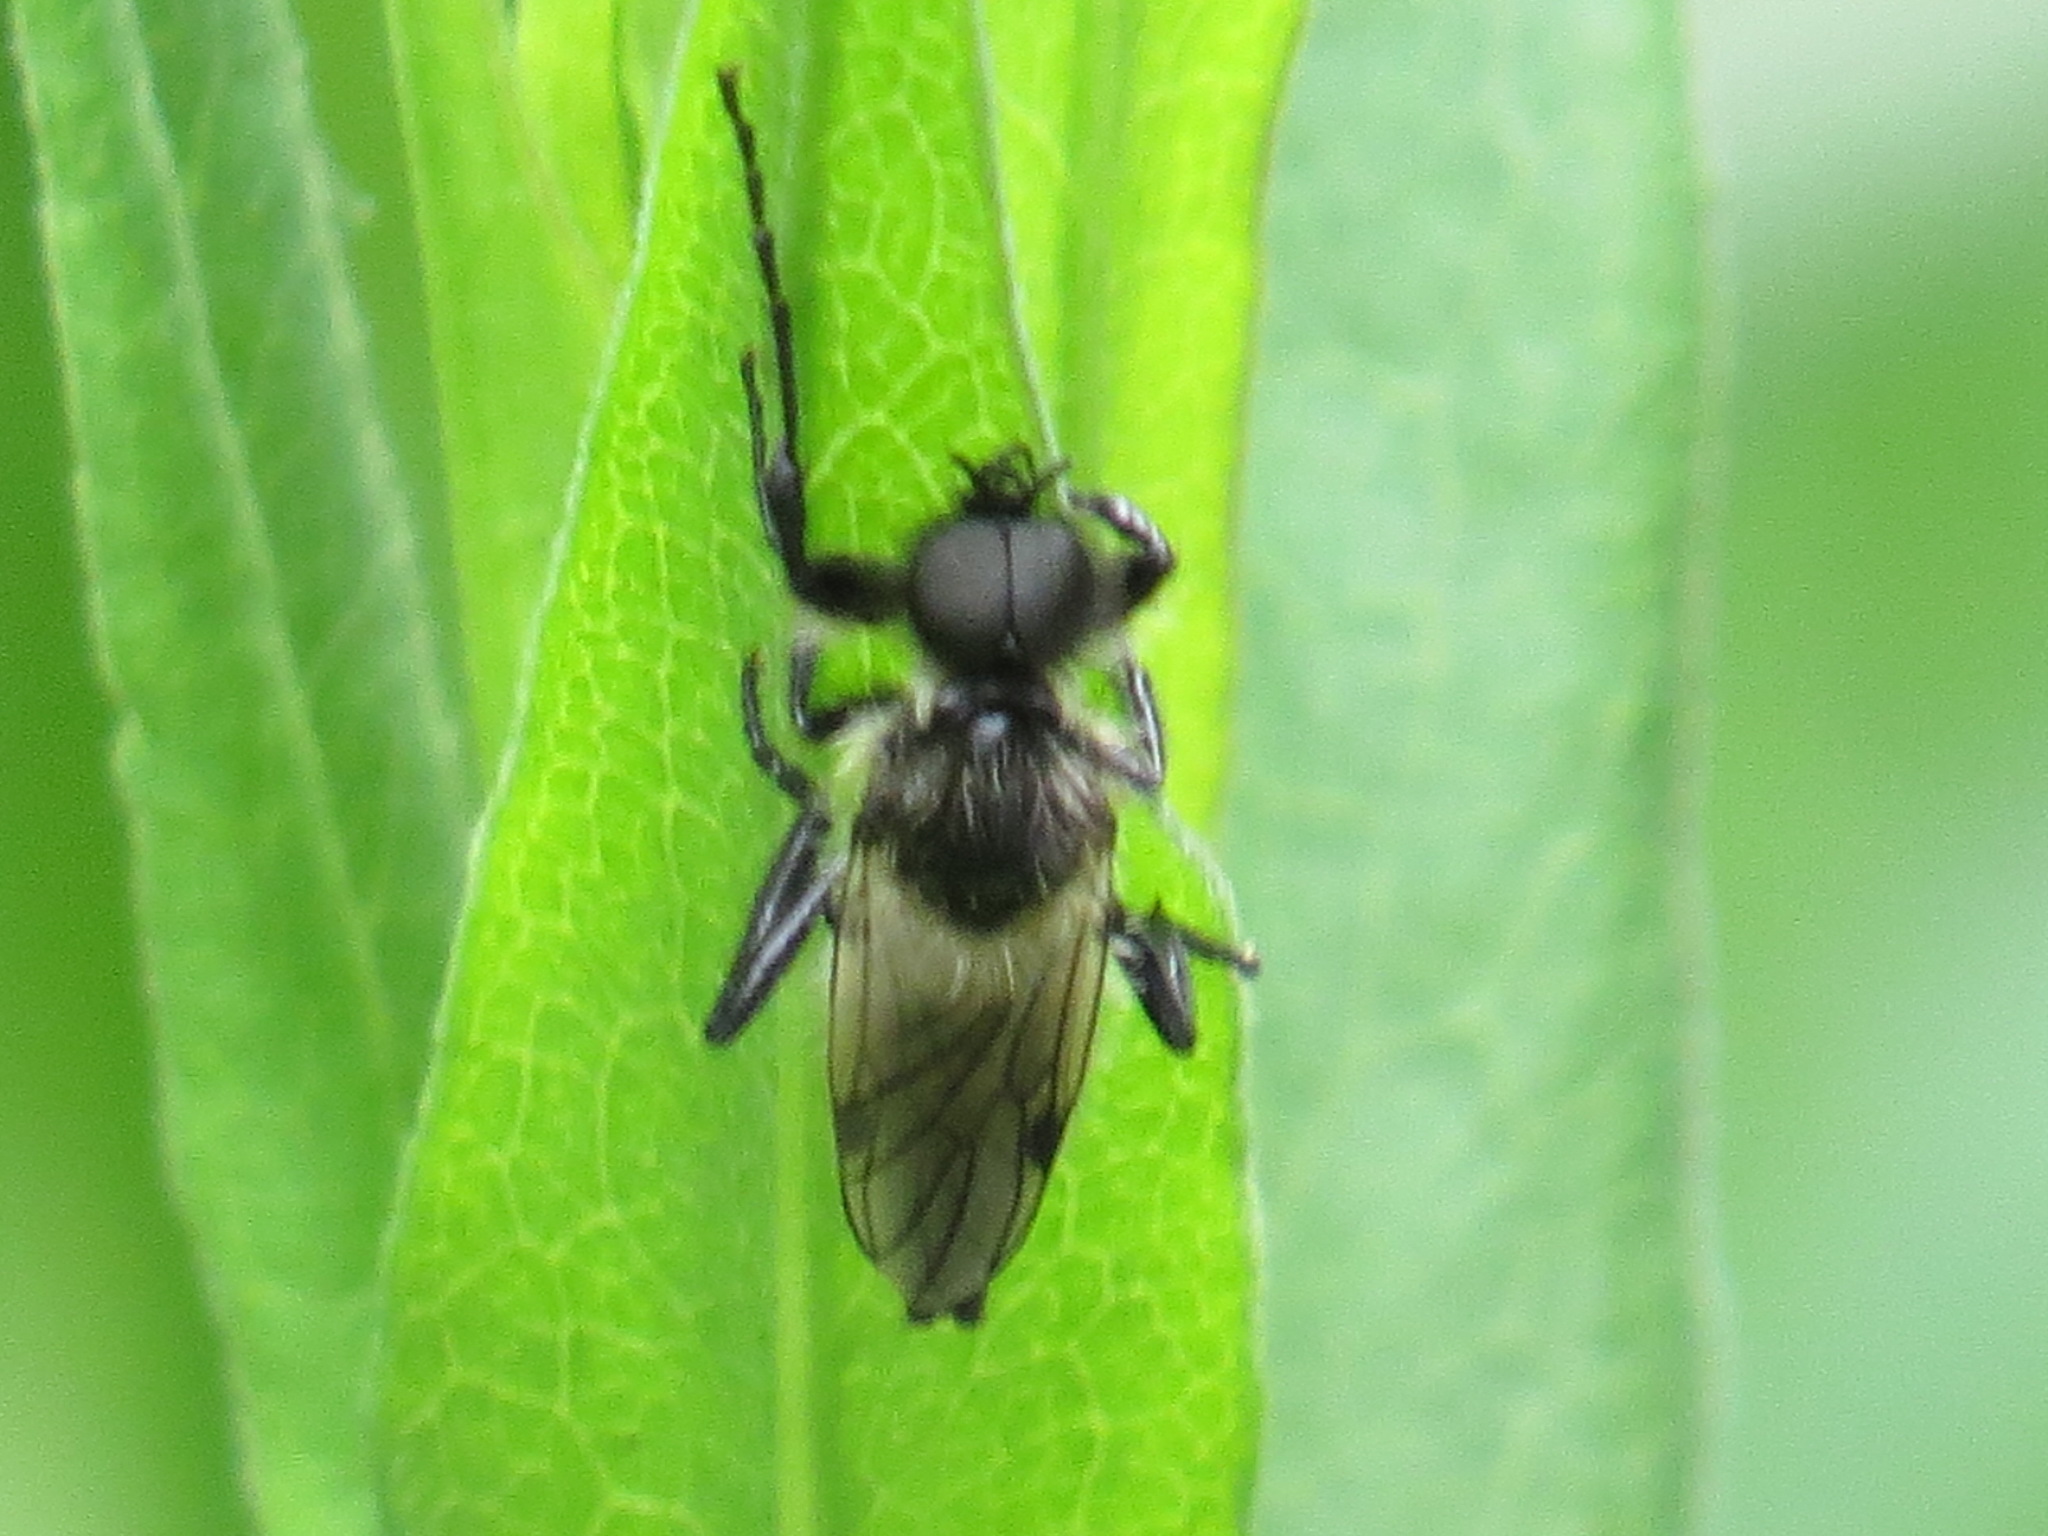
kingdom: Animalia
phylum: Arthropoda
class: Insecta
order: Diptera
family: Bibionidae
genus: Bibio
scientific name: Bibio albipennis
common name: White-winged march fly
